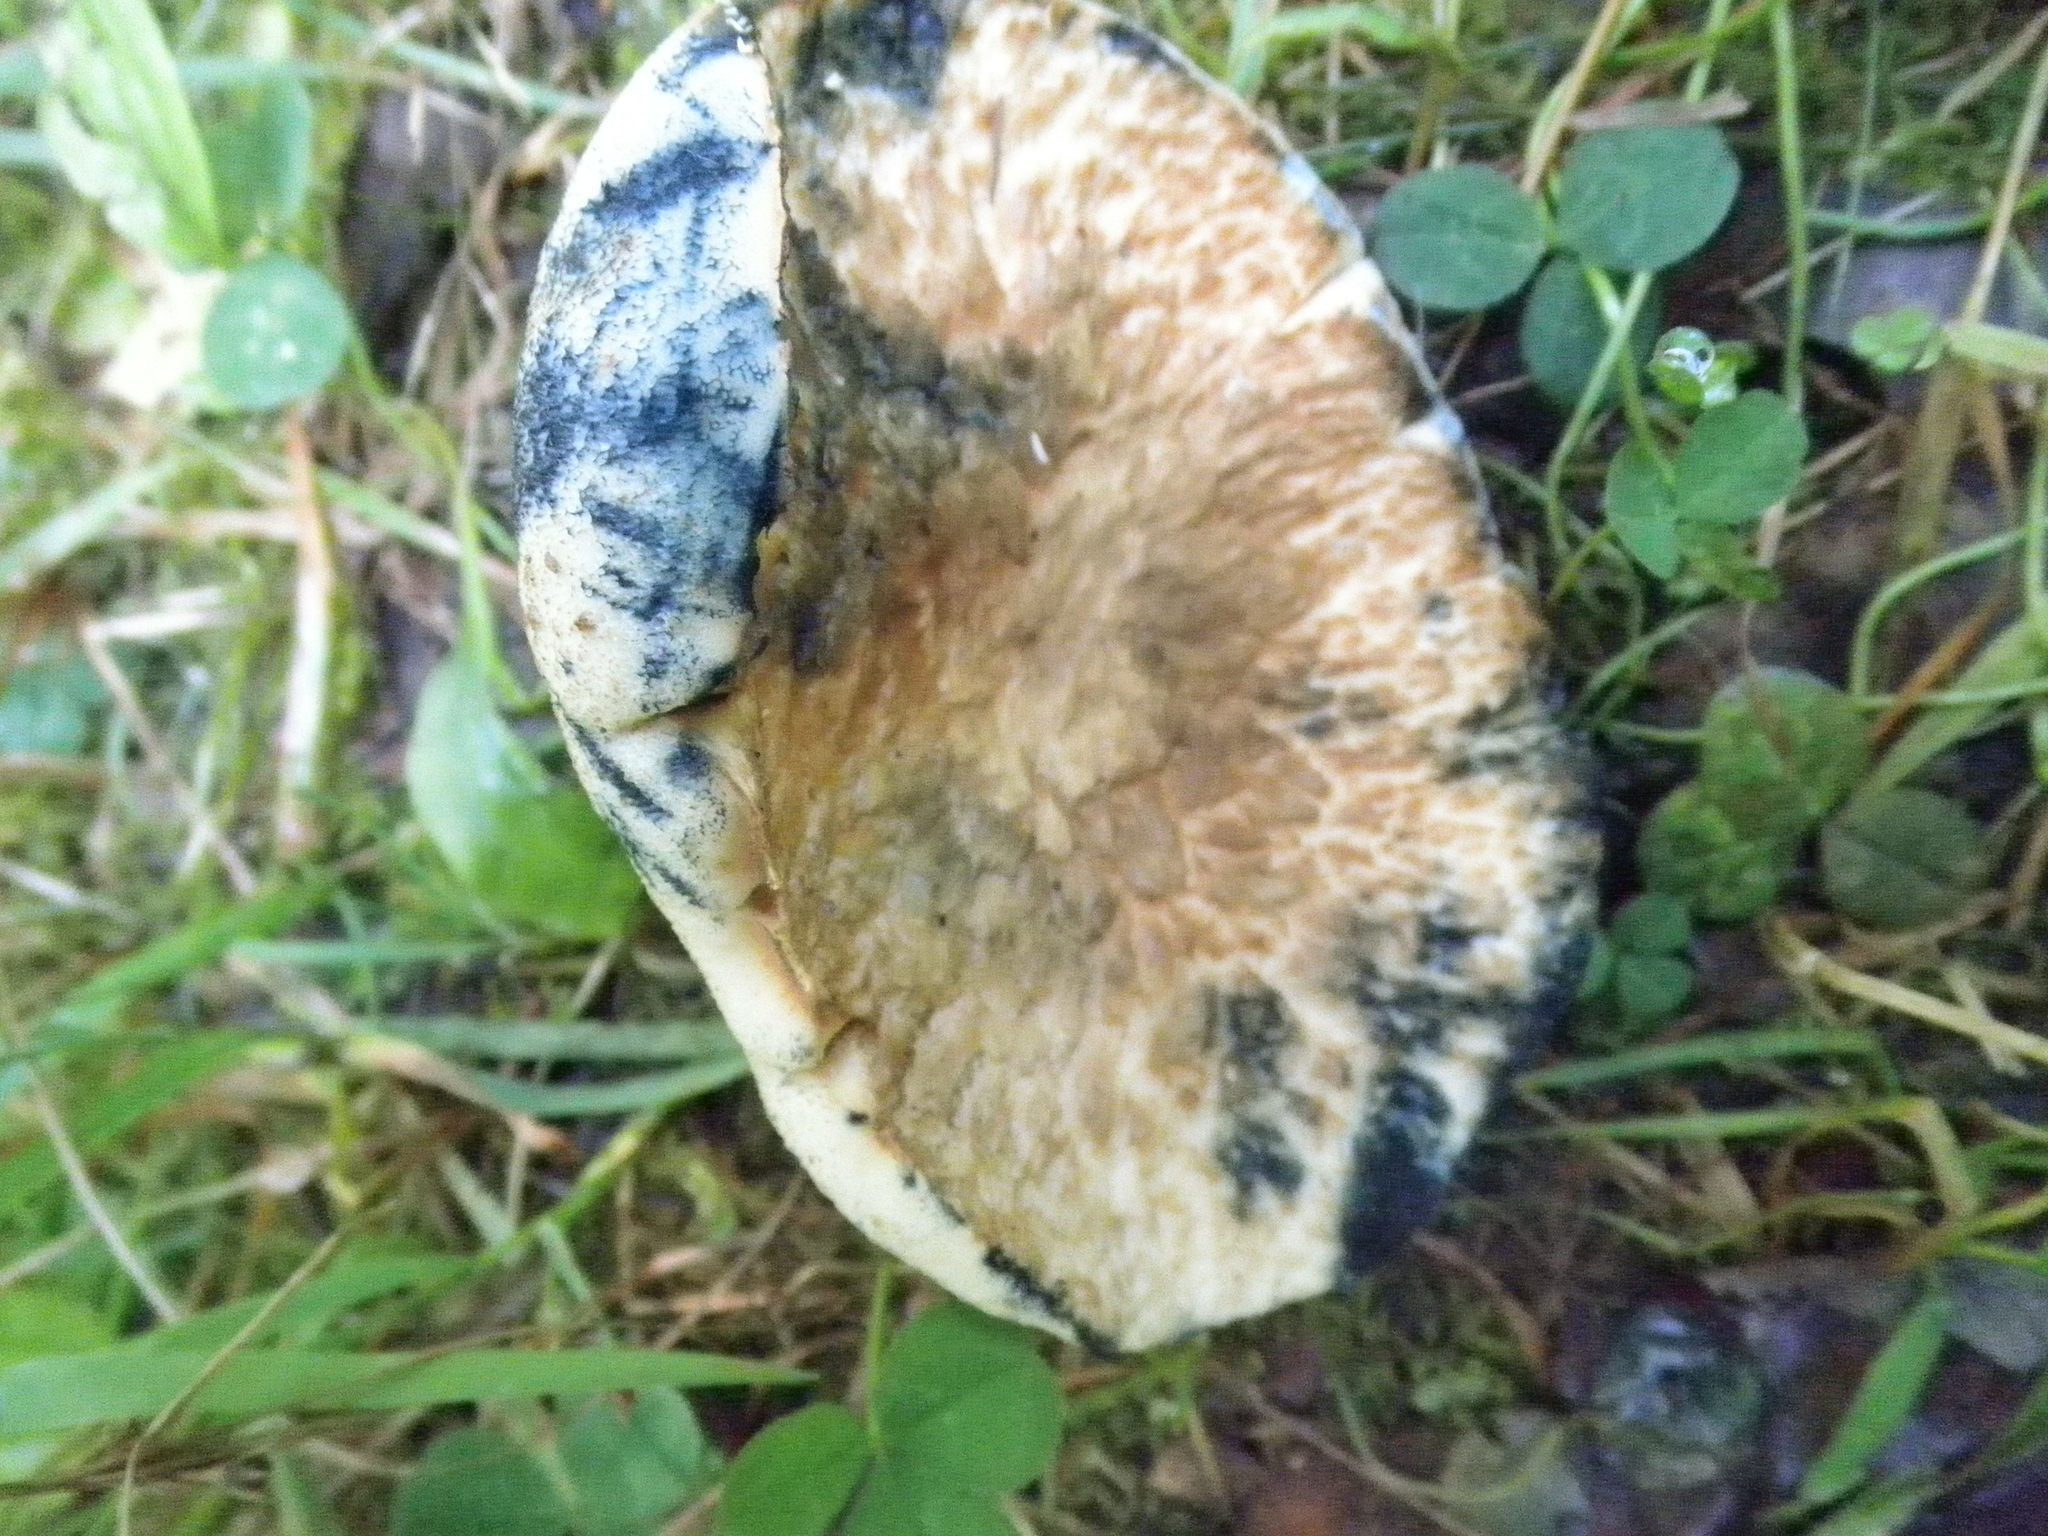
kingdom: Fungi
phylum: Basidiomycota
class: Agaricomycetes
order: Boletales
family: Gyroporaceae
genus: Gyroporus
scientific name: Gyroporus cyanescens
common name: Cornflower bolete
